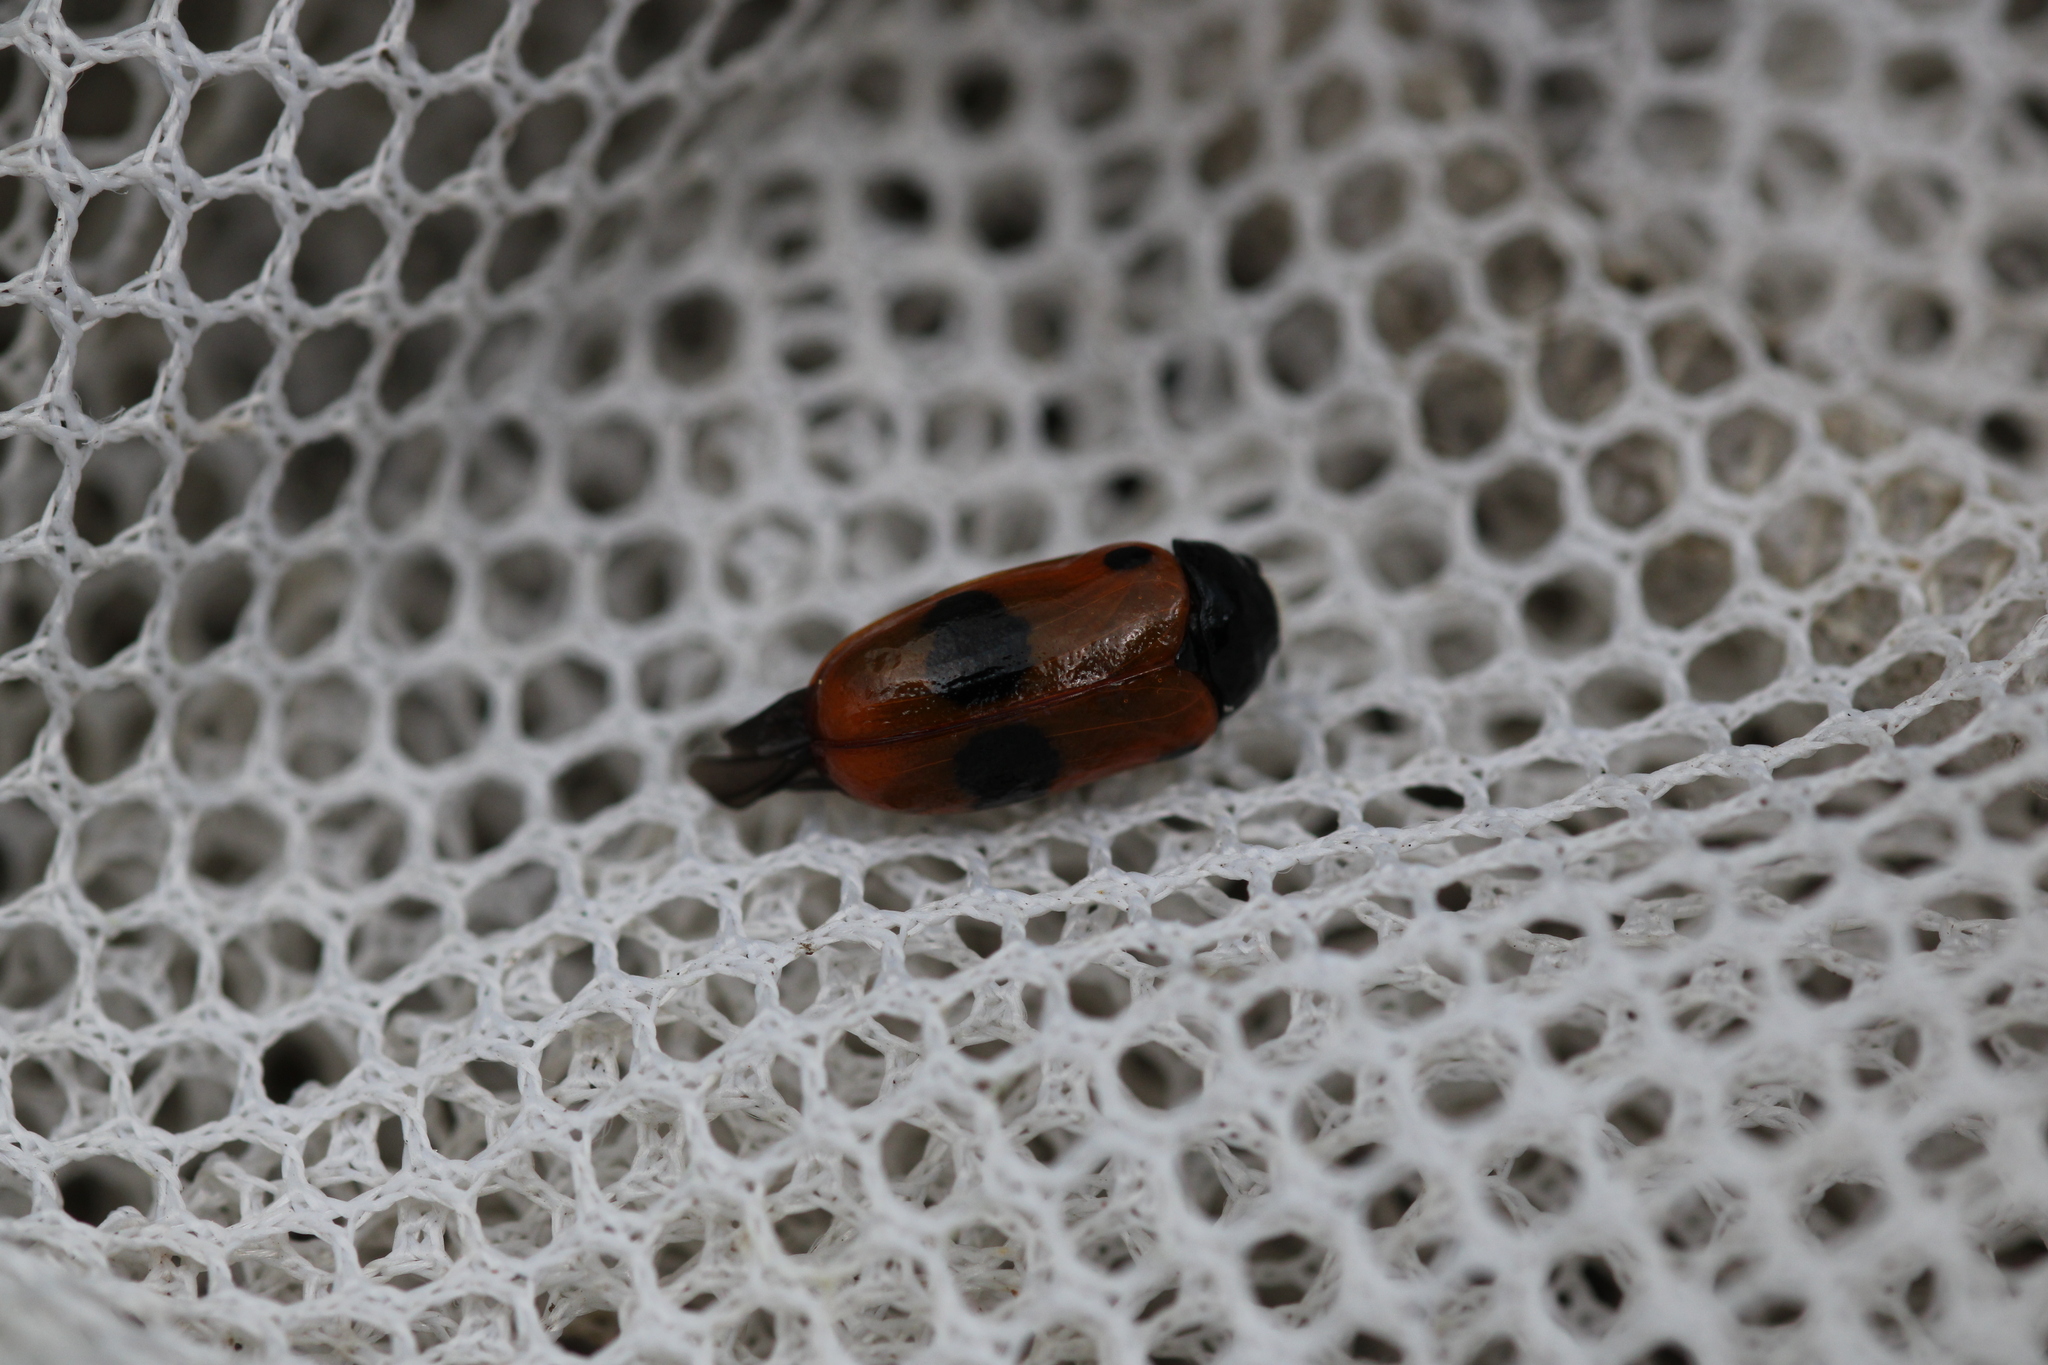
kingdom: Animalia
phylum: Arthropoda
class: Insecta
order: Coleoptera
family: Chrysomelidae
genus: Clytra
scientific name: Clytra laeviuscula
